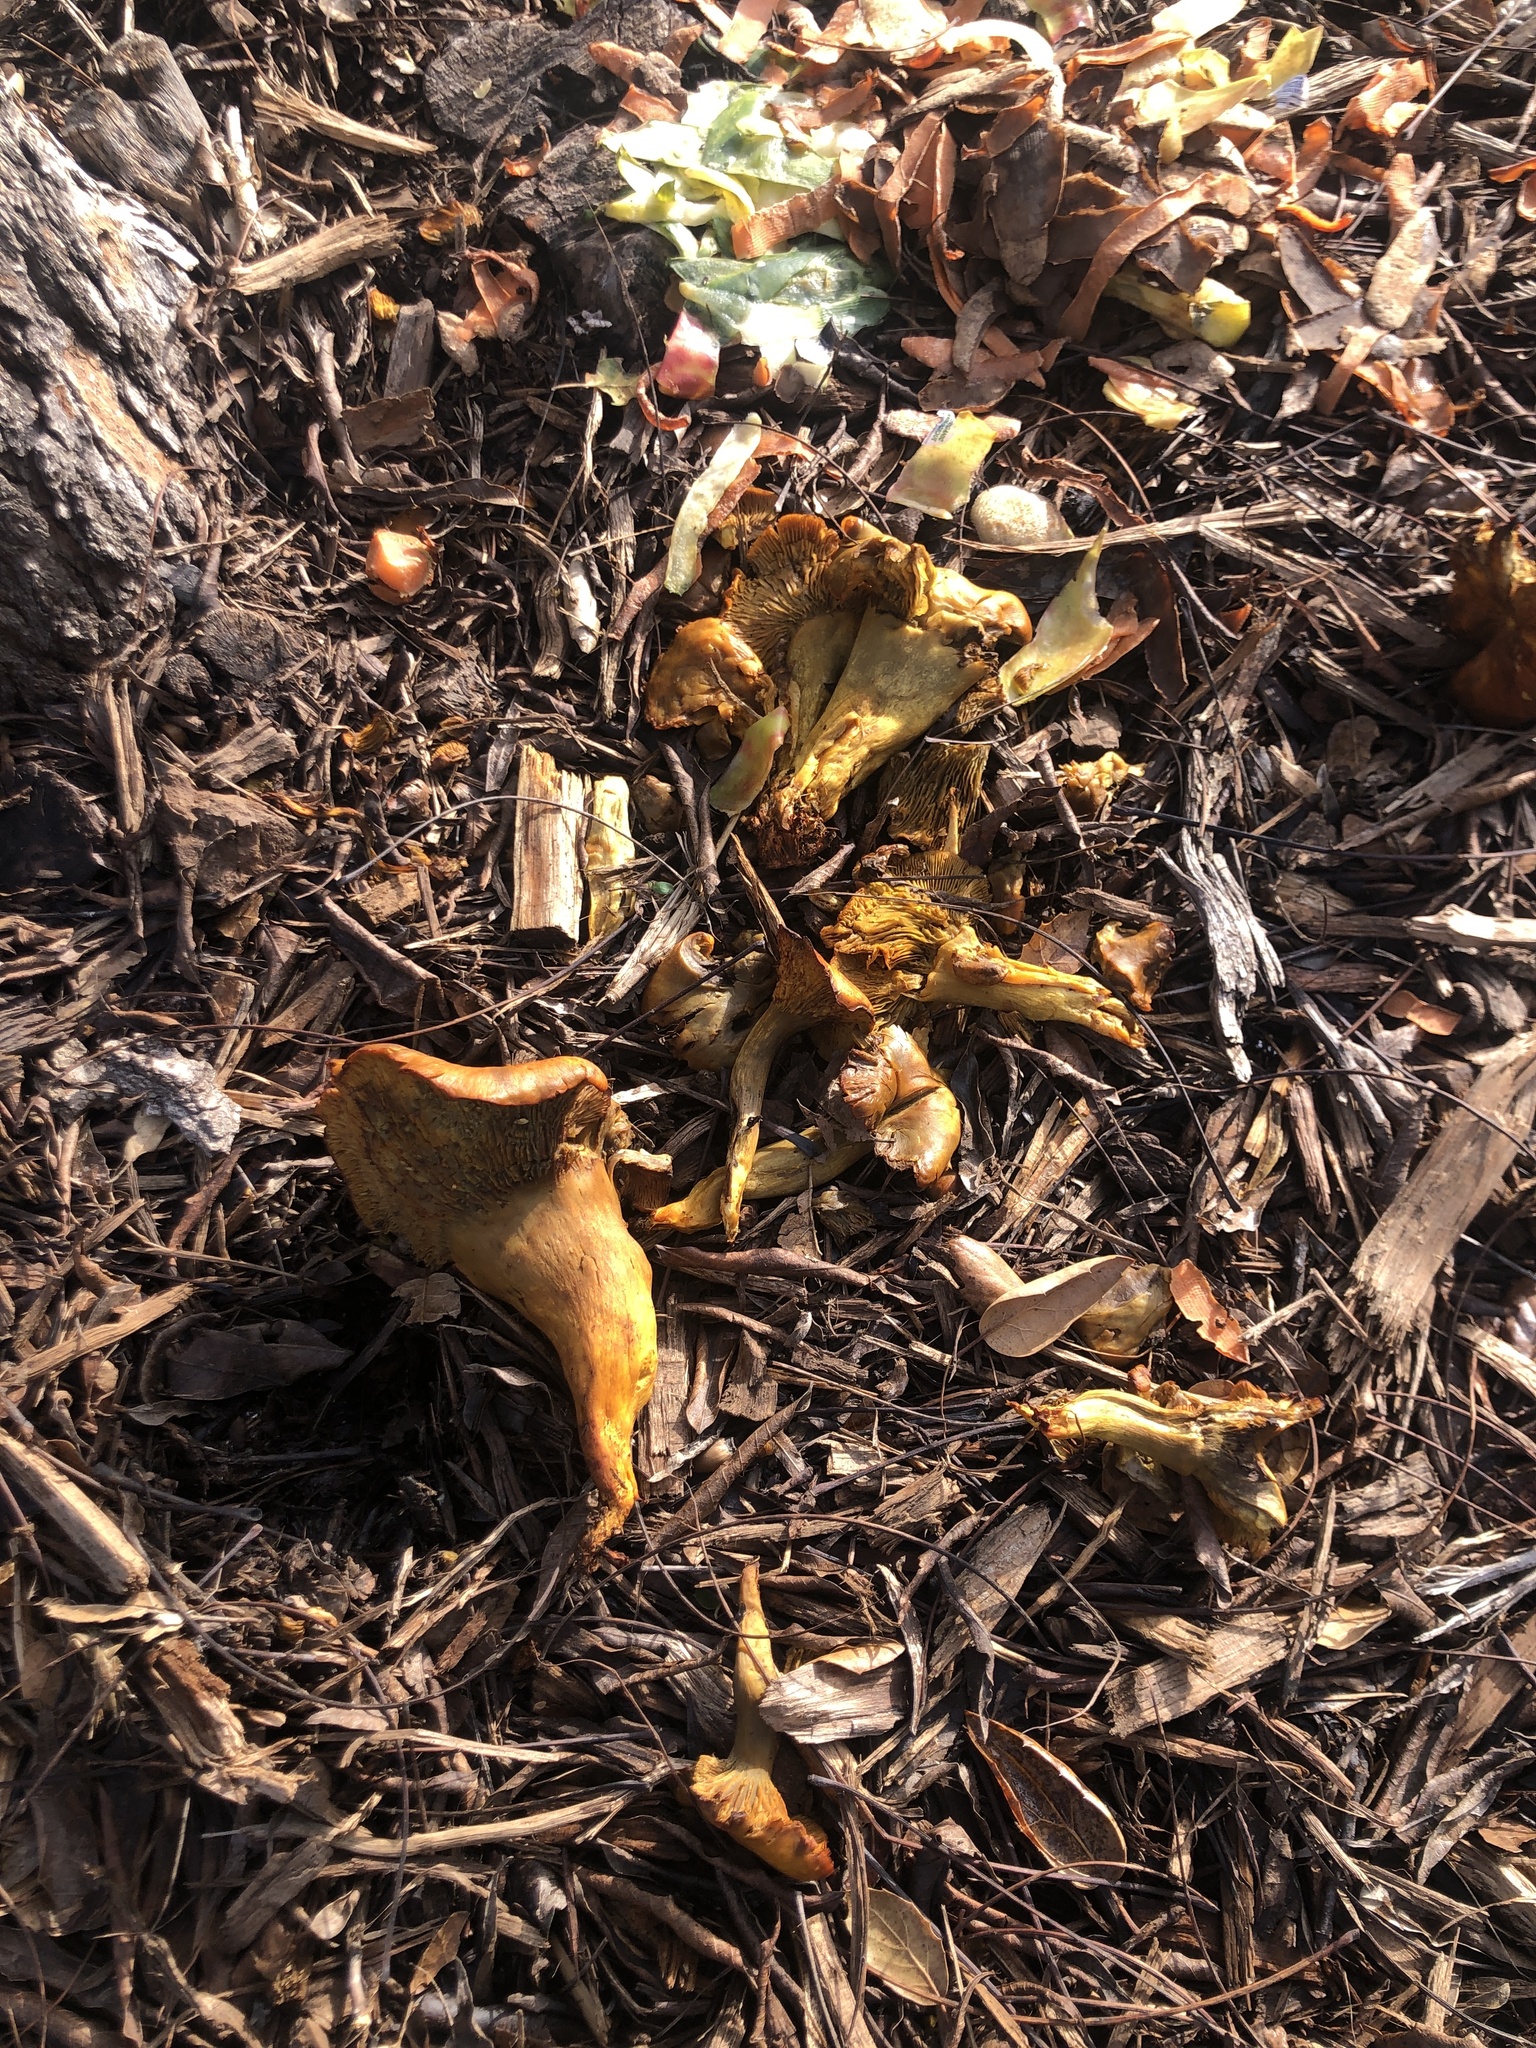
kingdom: Fungi
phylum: Basidiomycota
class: Agaricomycetes
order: Agaricales
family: Omphalotaceae
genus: Omphalotus
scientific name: Omphalotus olivascens
